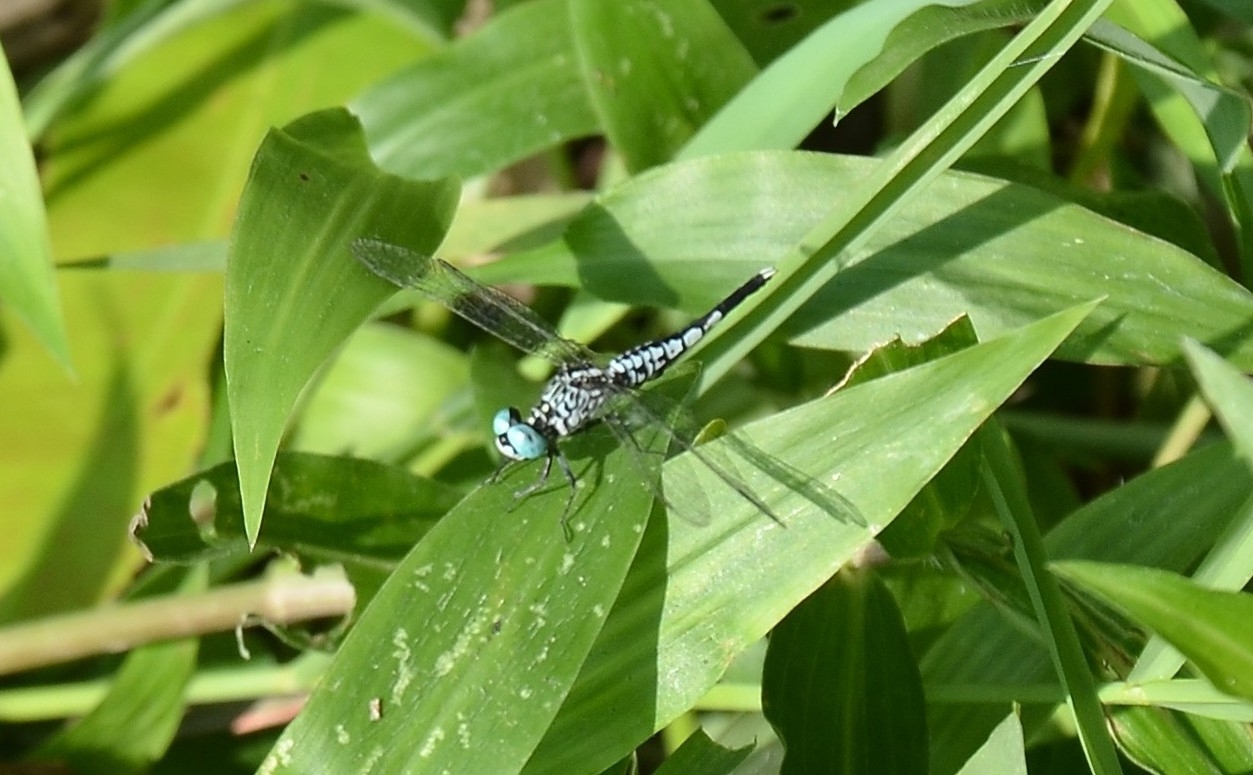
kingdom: Animalia
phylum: Arthropoda
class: Insecta
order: Odonata
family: Libellulidae
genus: Acisoma
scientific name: Acisoma panorpoides
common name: Asian pintail
